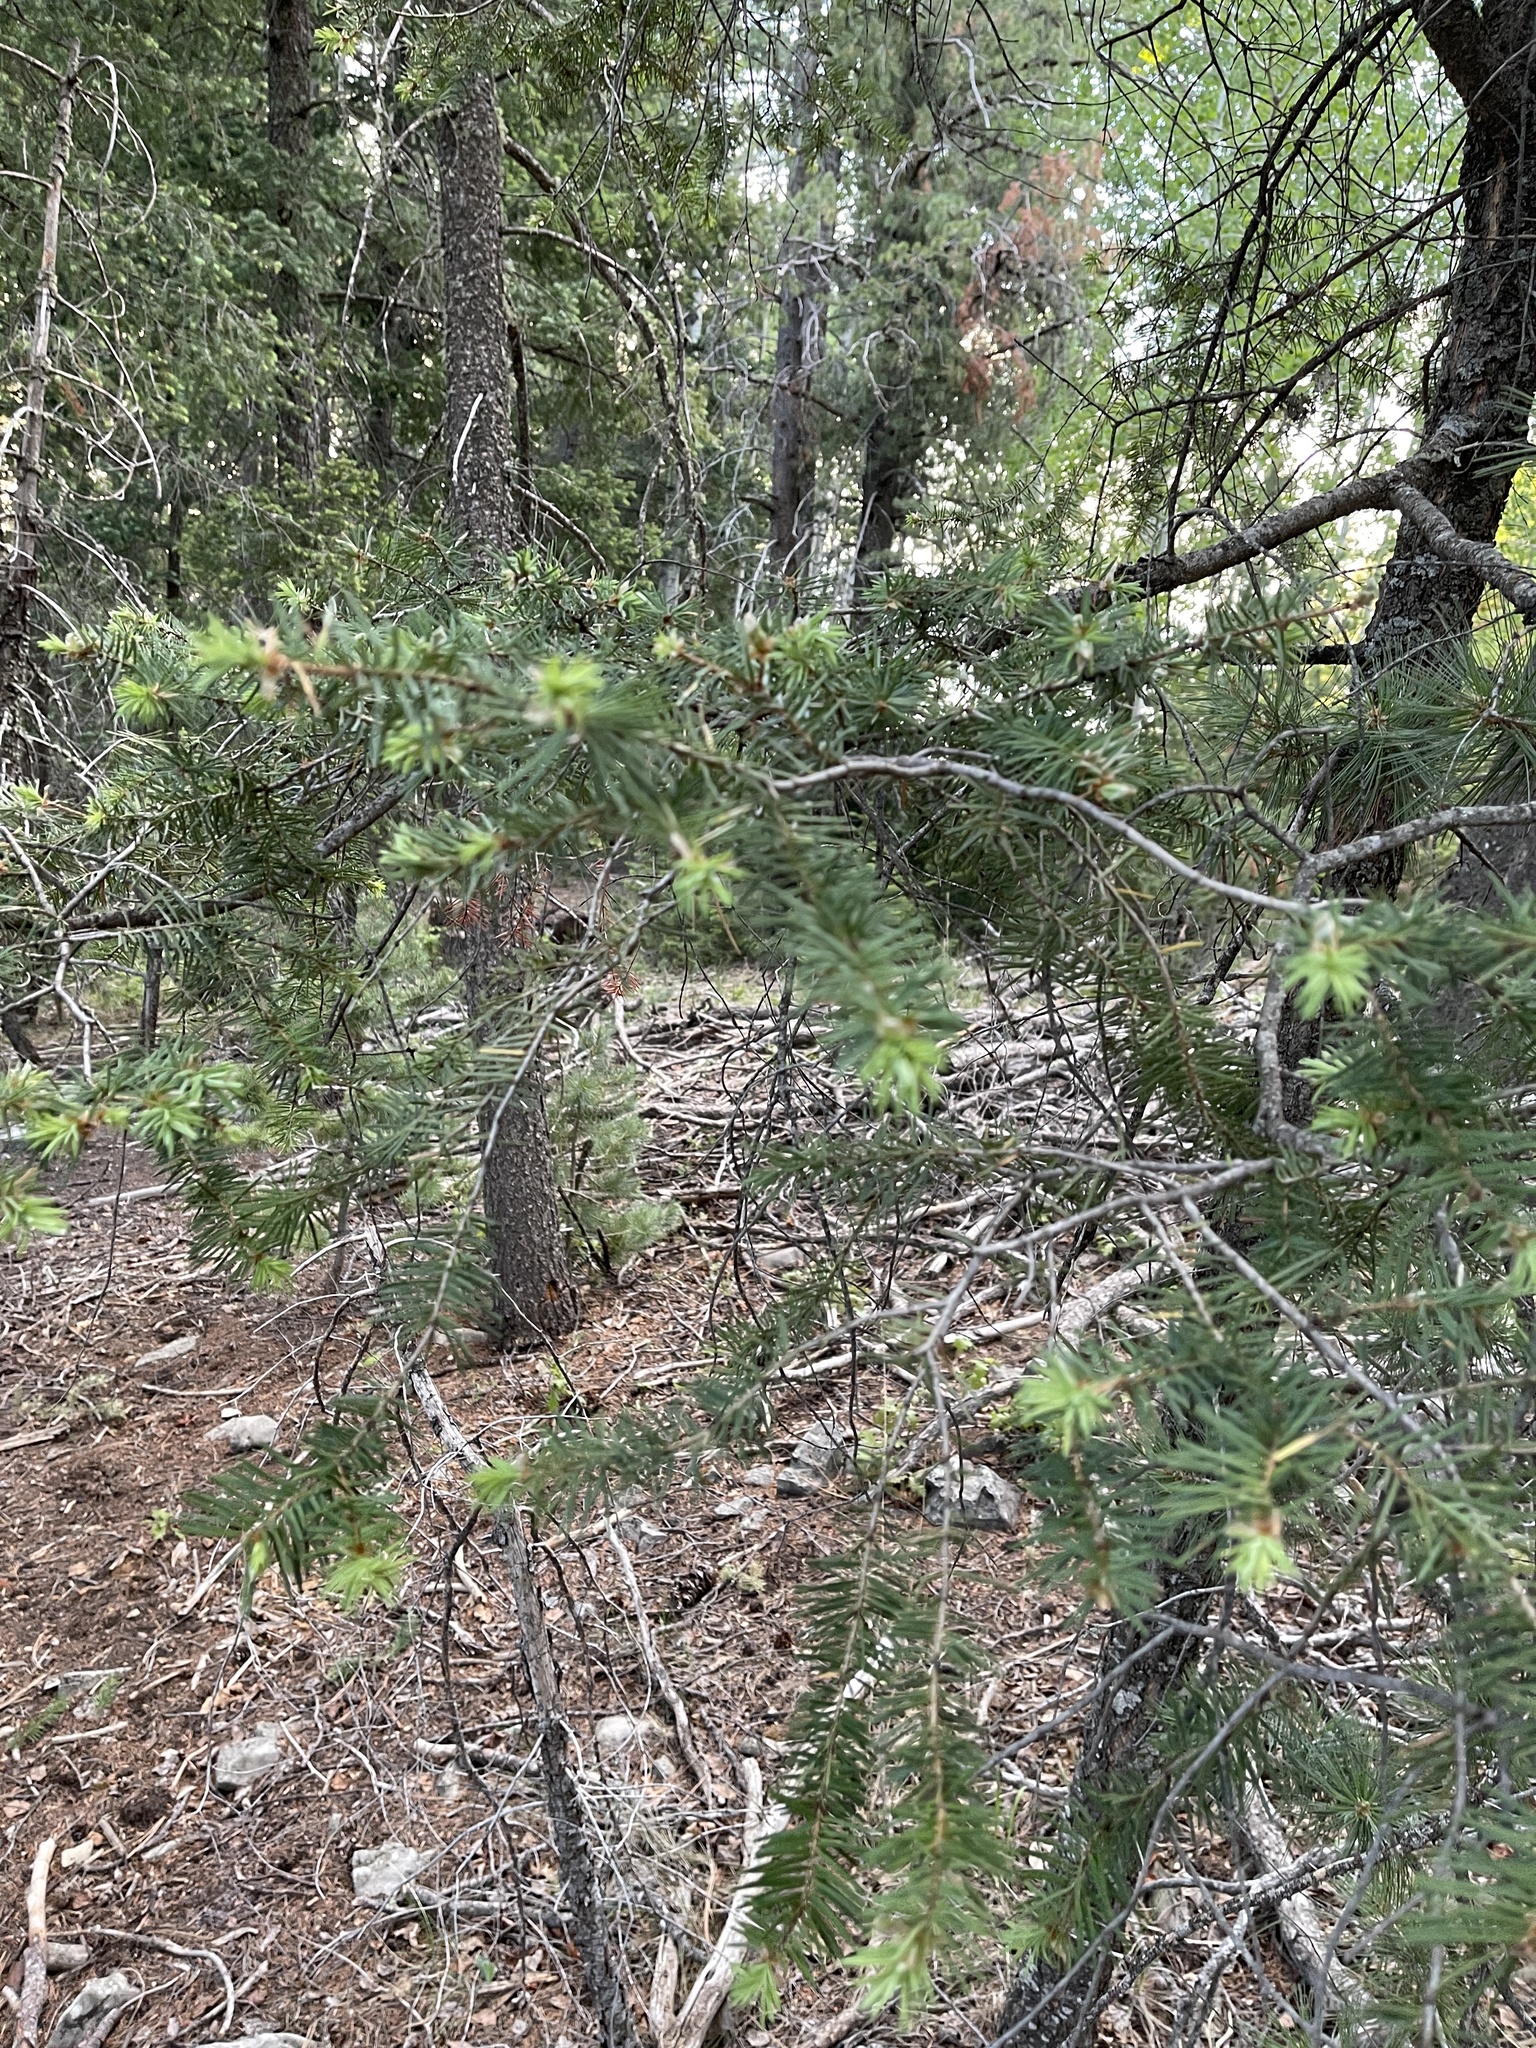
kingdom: Plantae
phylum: Tracheophyta
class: Pinopsida
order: Pinales
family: Pinaceae
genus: Pseudotsuga
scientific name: Pseudotsuga menziesii
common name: Douglas fir
